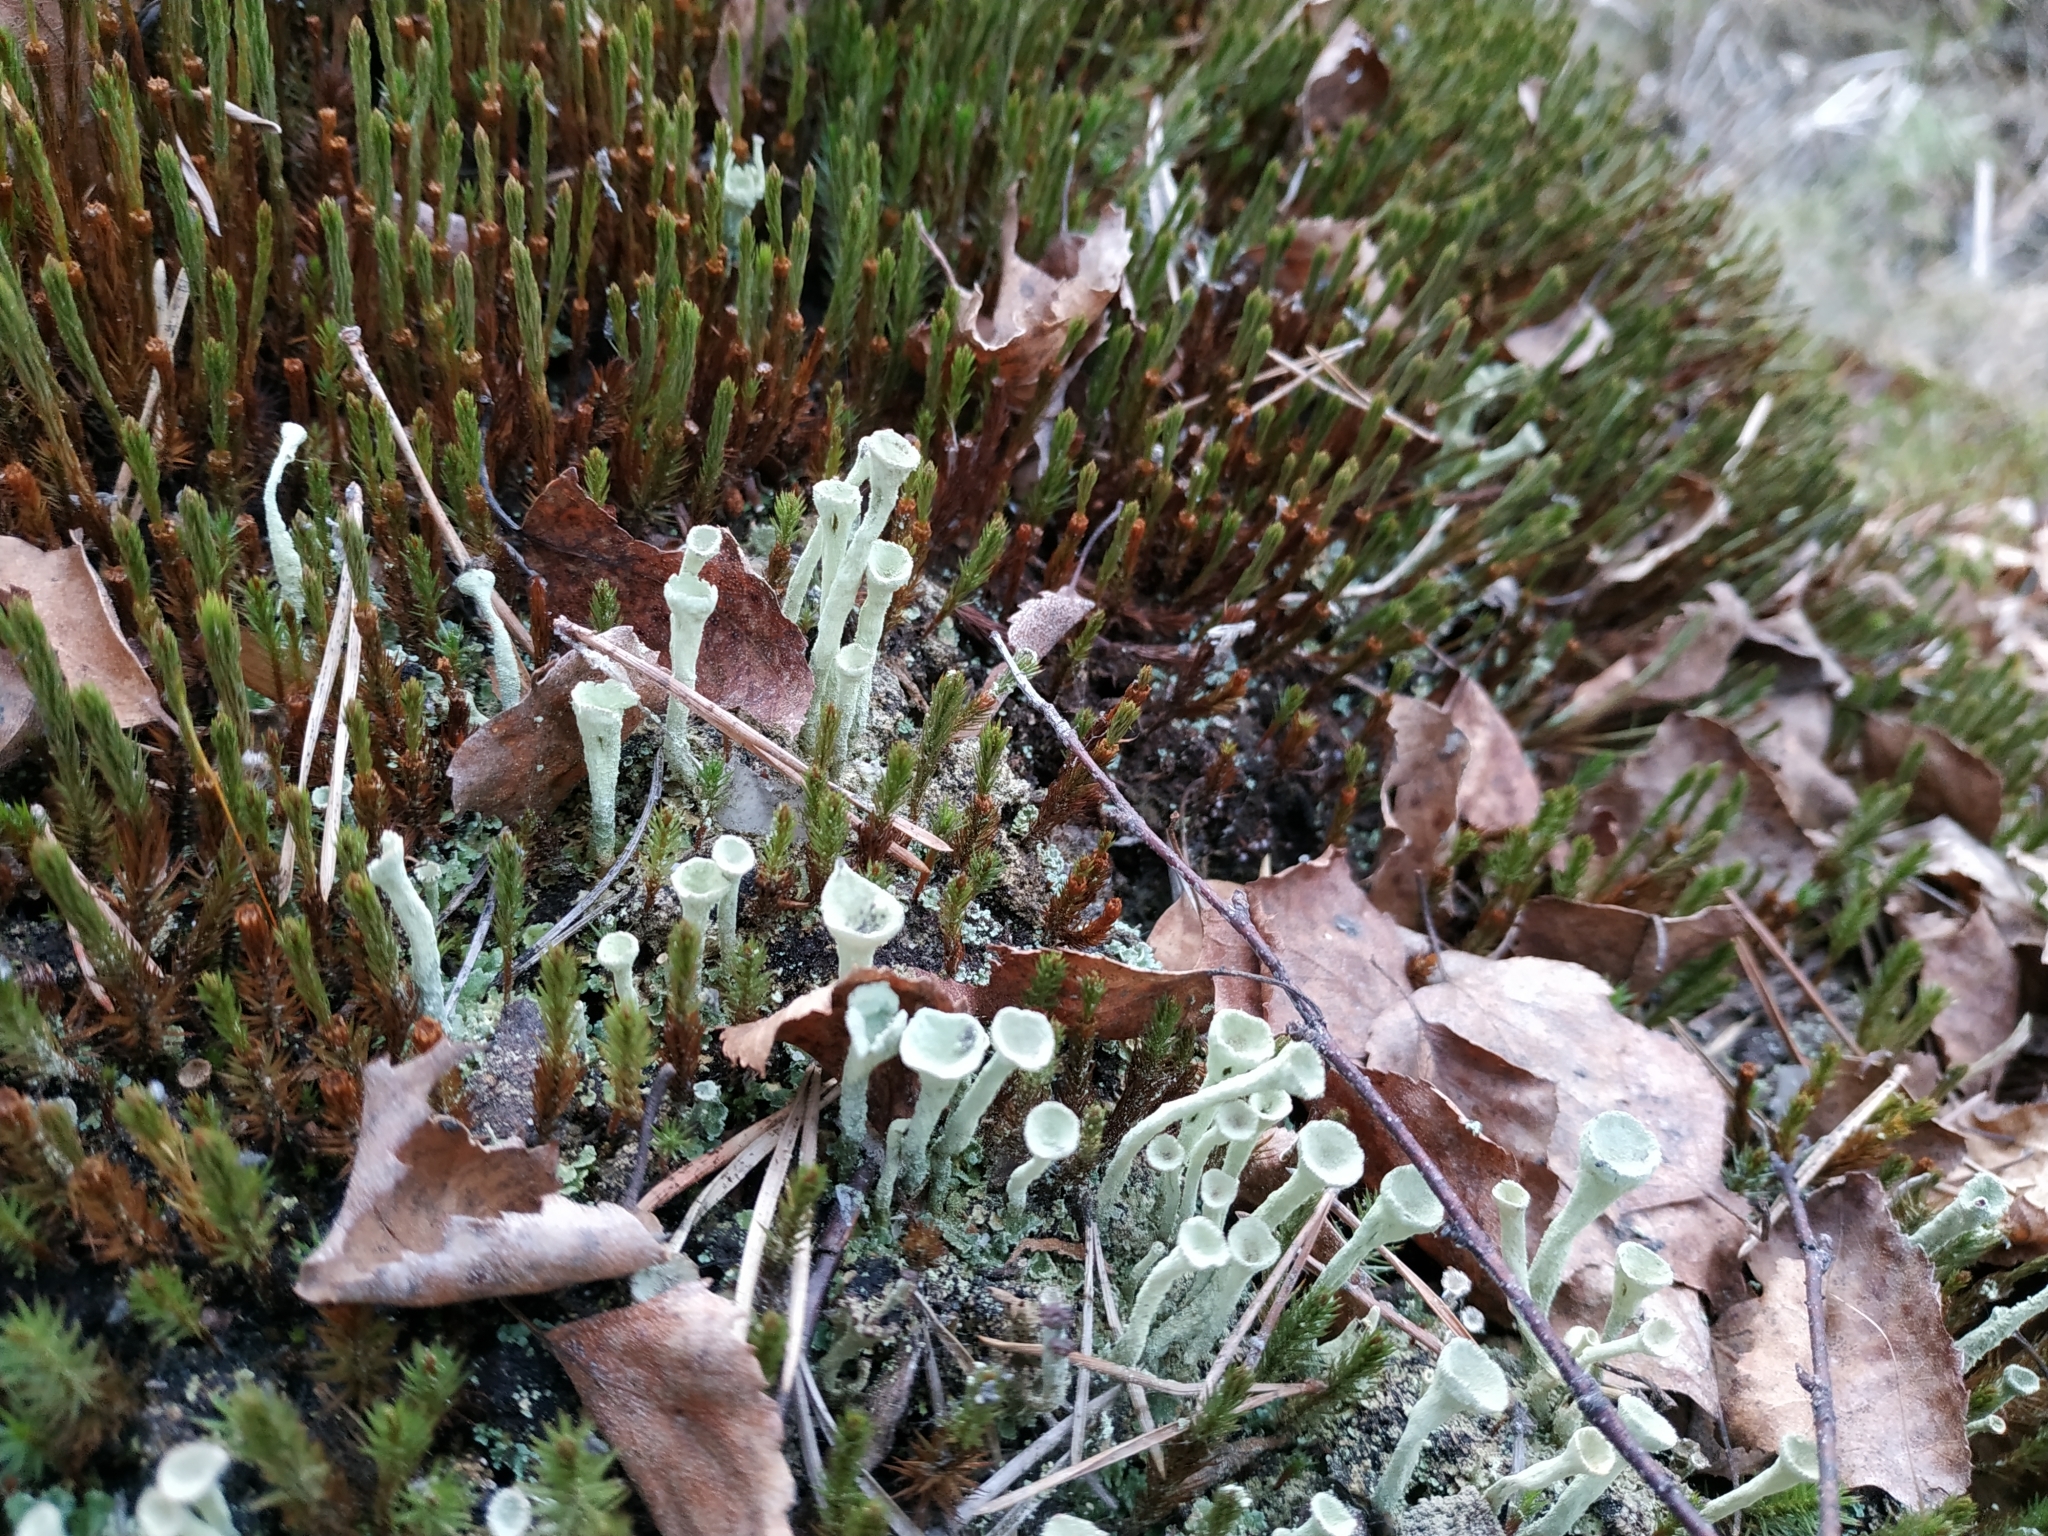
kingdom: Fungi
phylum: Ascomycota
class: Lecanoromycetes
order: Lecanorales
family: Cladoniaceae
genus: Cladonia
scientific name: Cladonia
